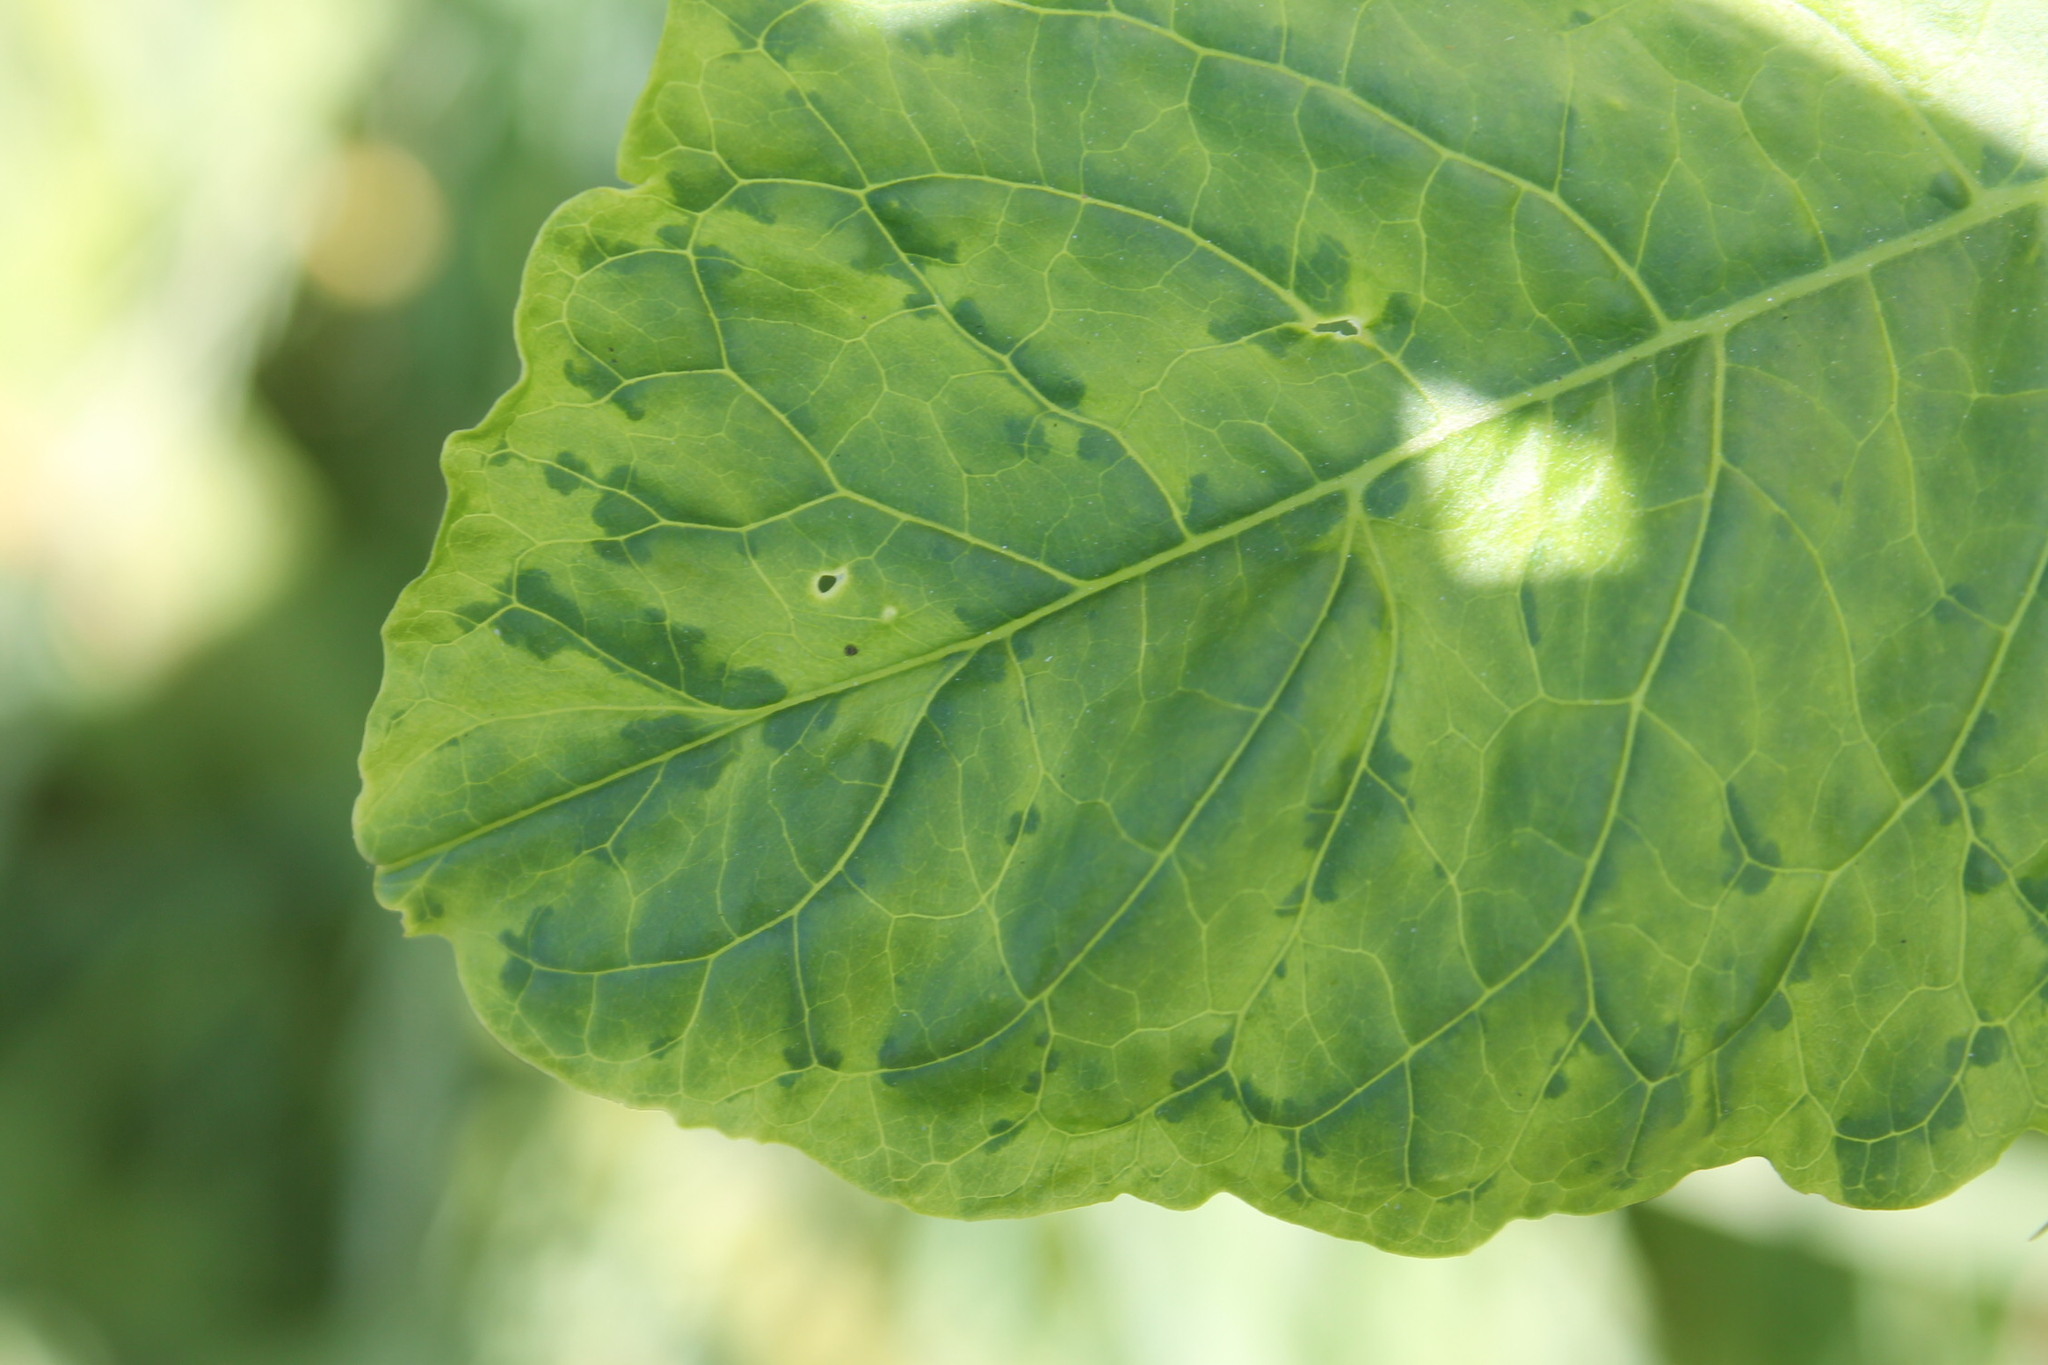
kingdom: Viruses
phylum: Pisuviricota
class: Stelpaviricetes
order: Patatavirales
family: Potyviridae
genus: Potyvirus
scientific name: Potyvirus Pokeweed mosaic virus
